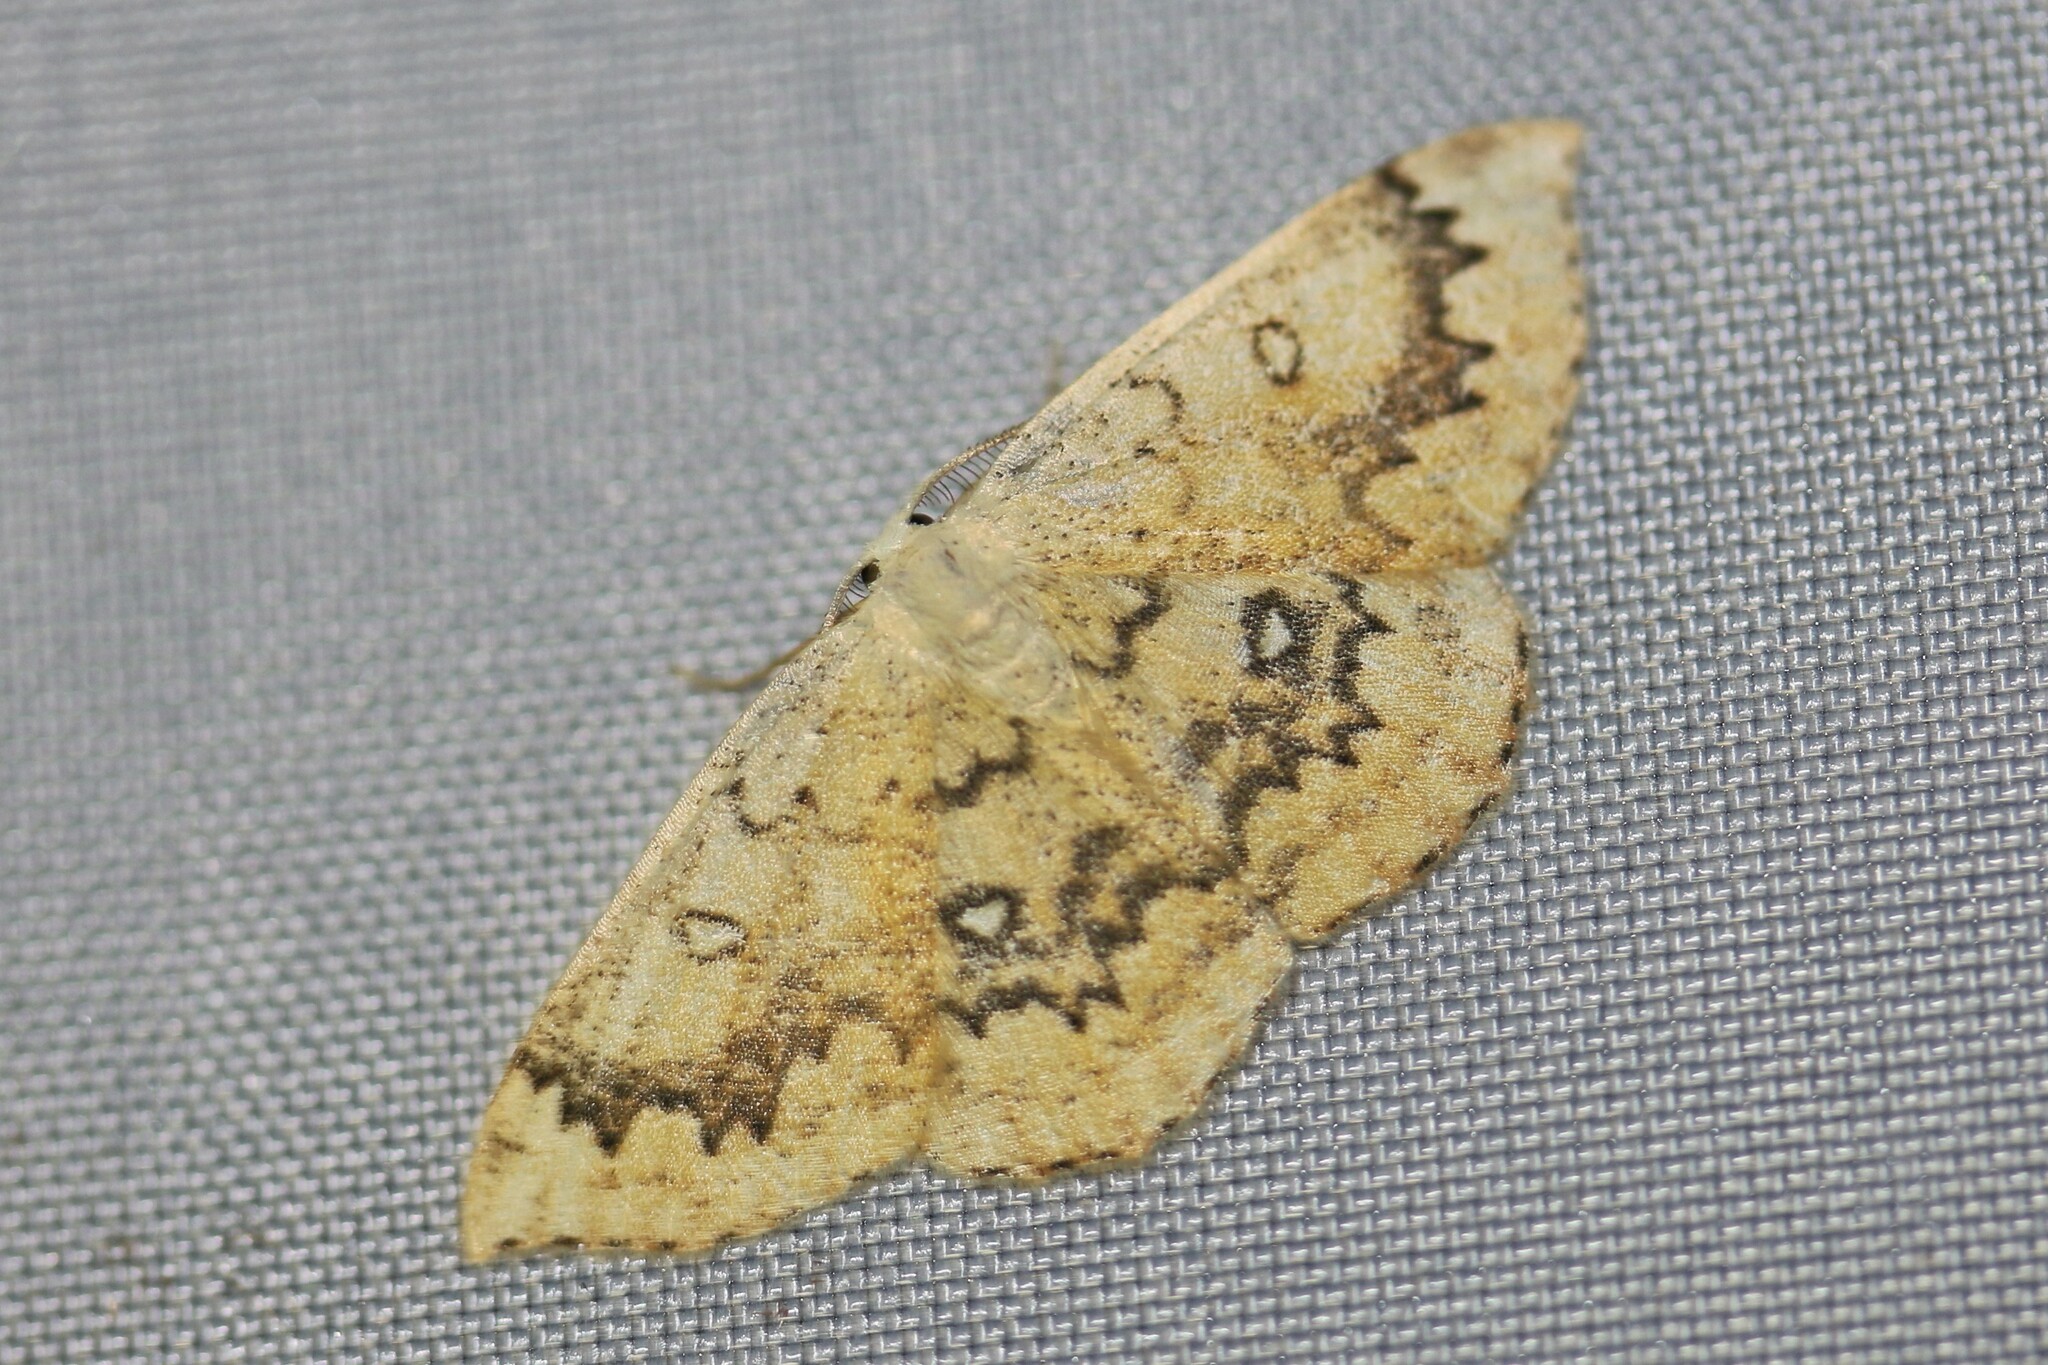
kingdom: Animalia
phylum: Arthropoda
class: Insecta
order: Lepidoptera
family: Geometridae
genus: Cyclophora
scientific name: Cyclophora annularia
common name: Mocha
